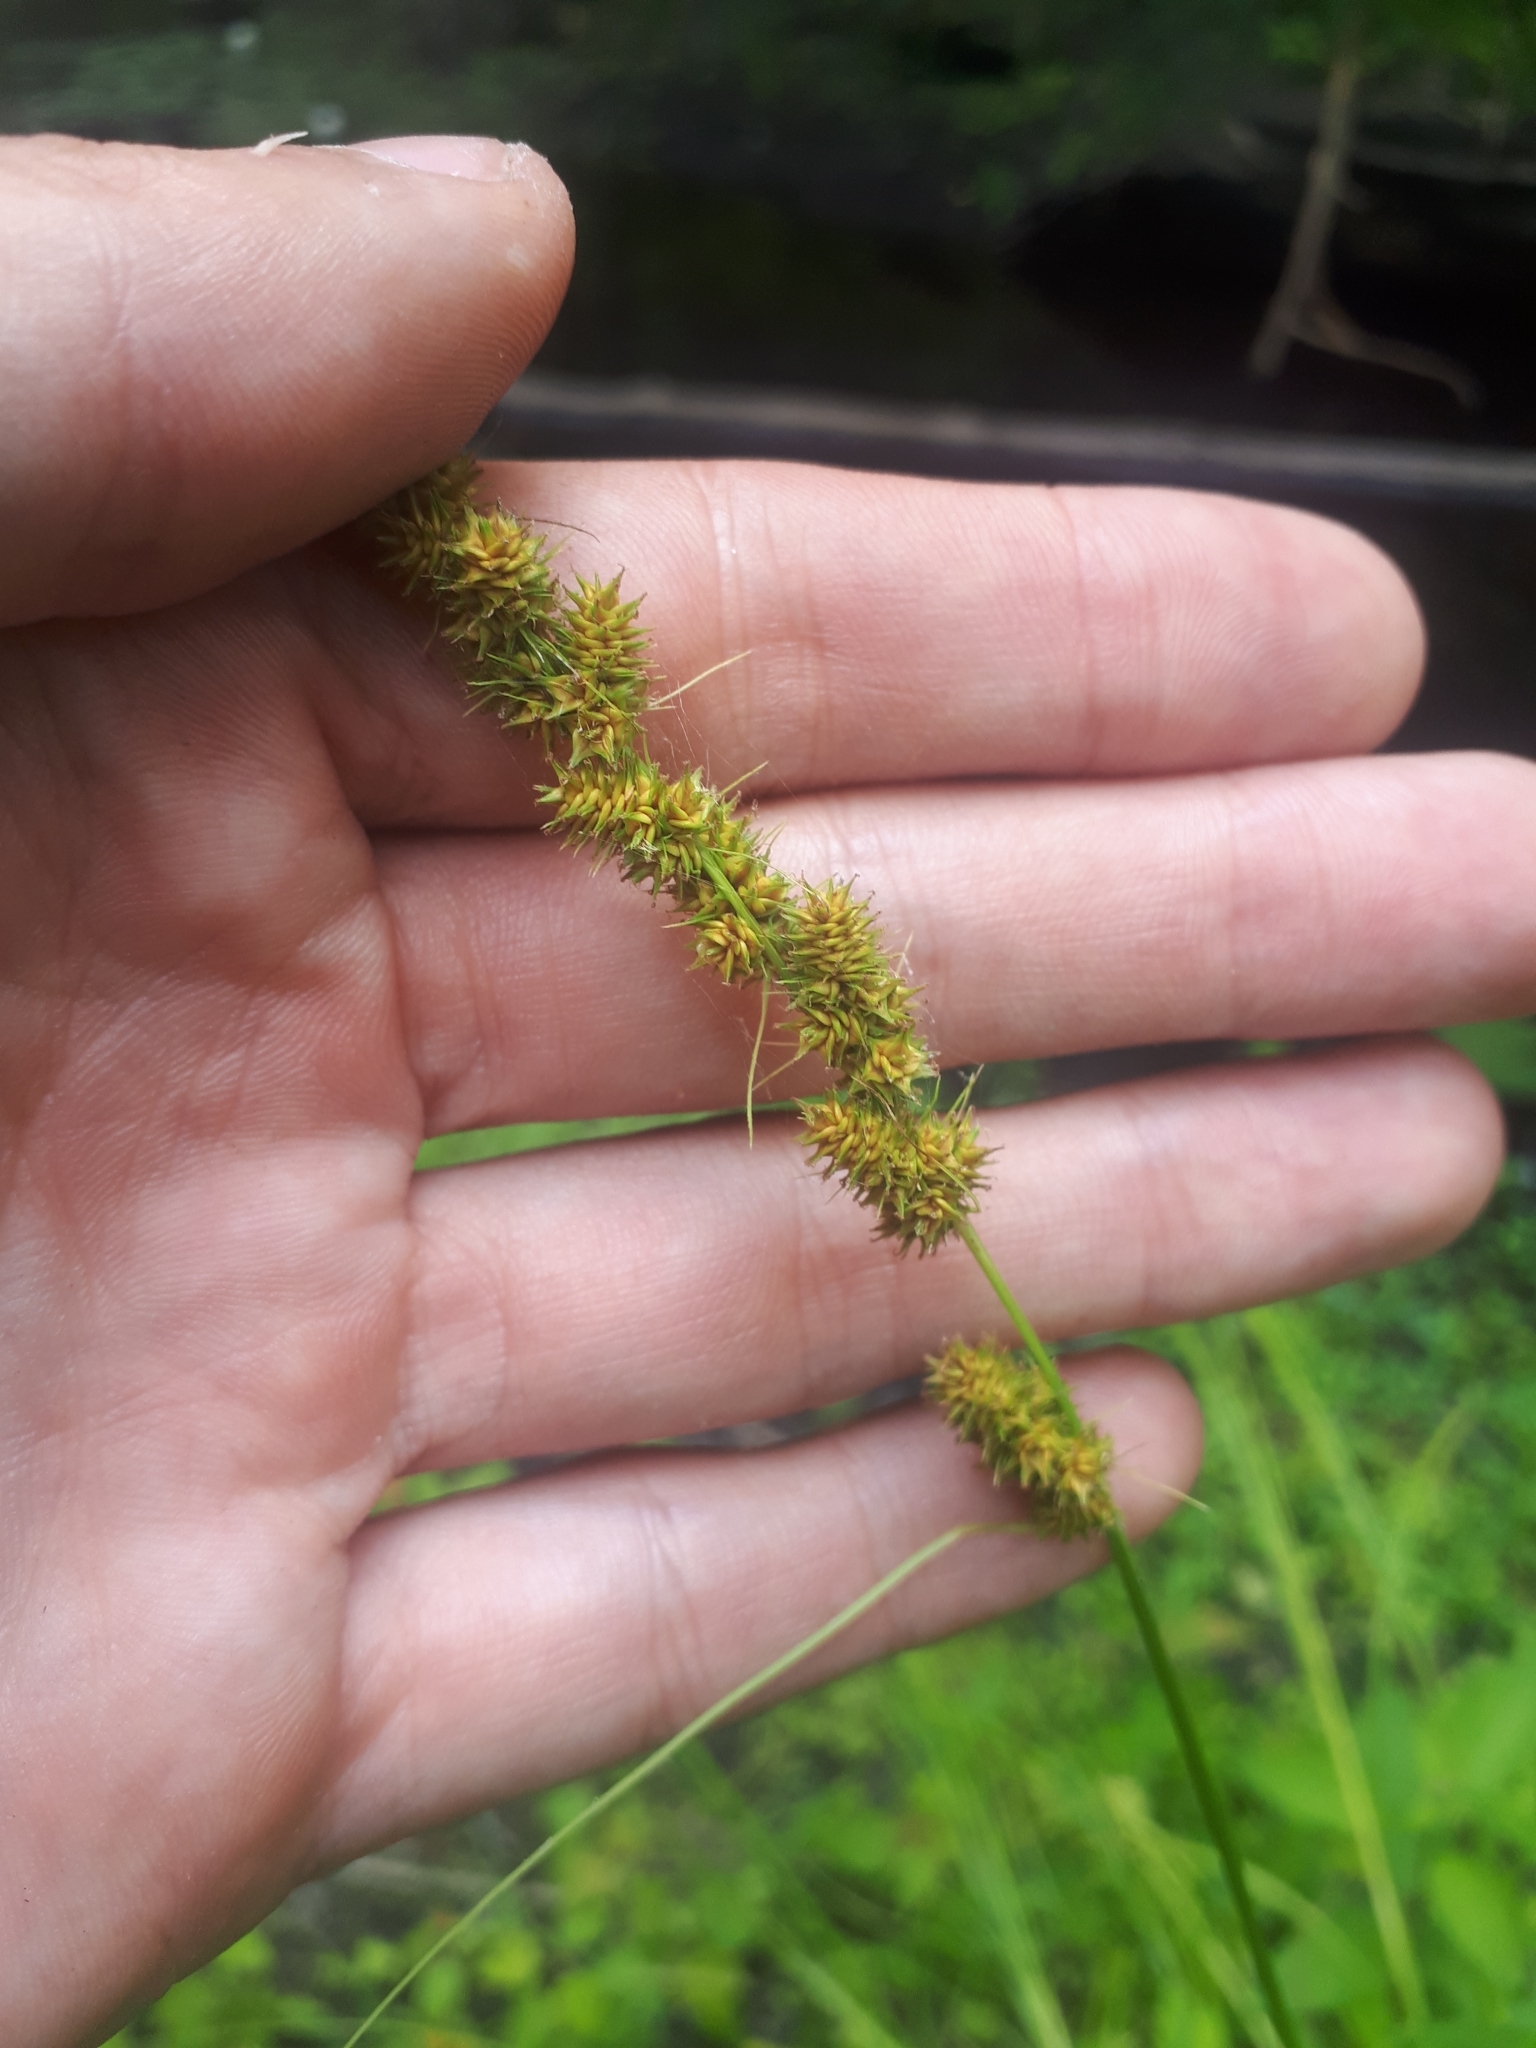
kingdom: Plantae
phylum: Tracheophyta
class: Liliopsida
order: Poales
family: Cyperaceae
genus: Carex
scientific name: Carex vulpinoidea
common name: American fox-sedge
